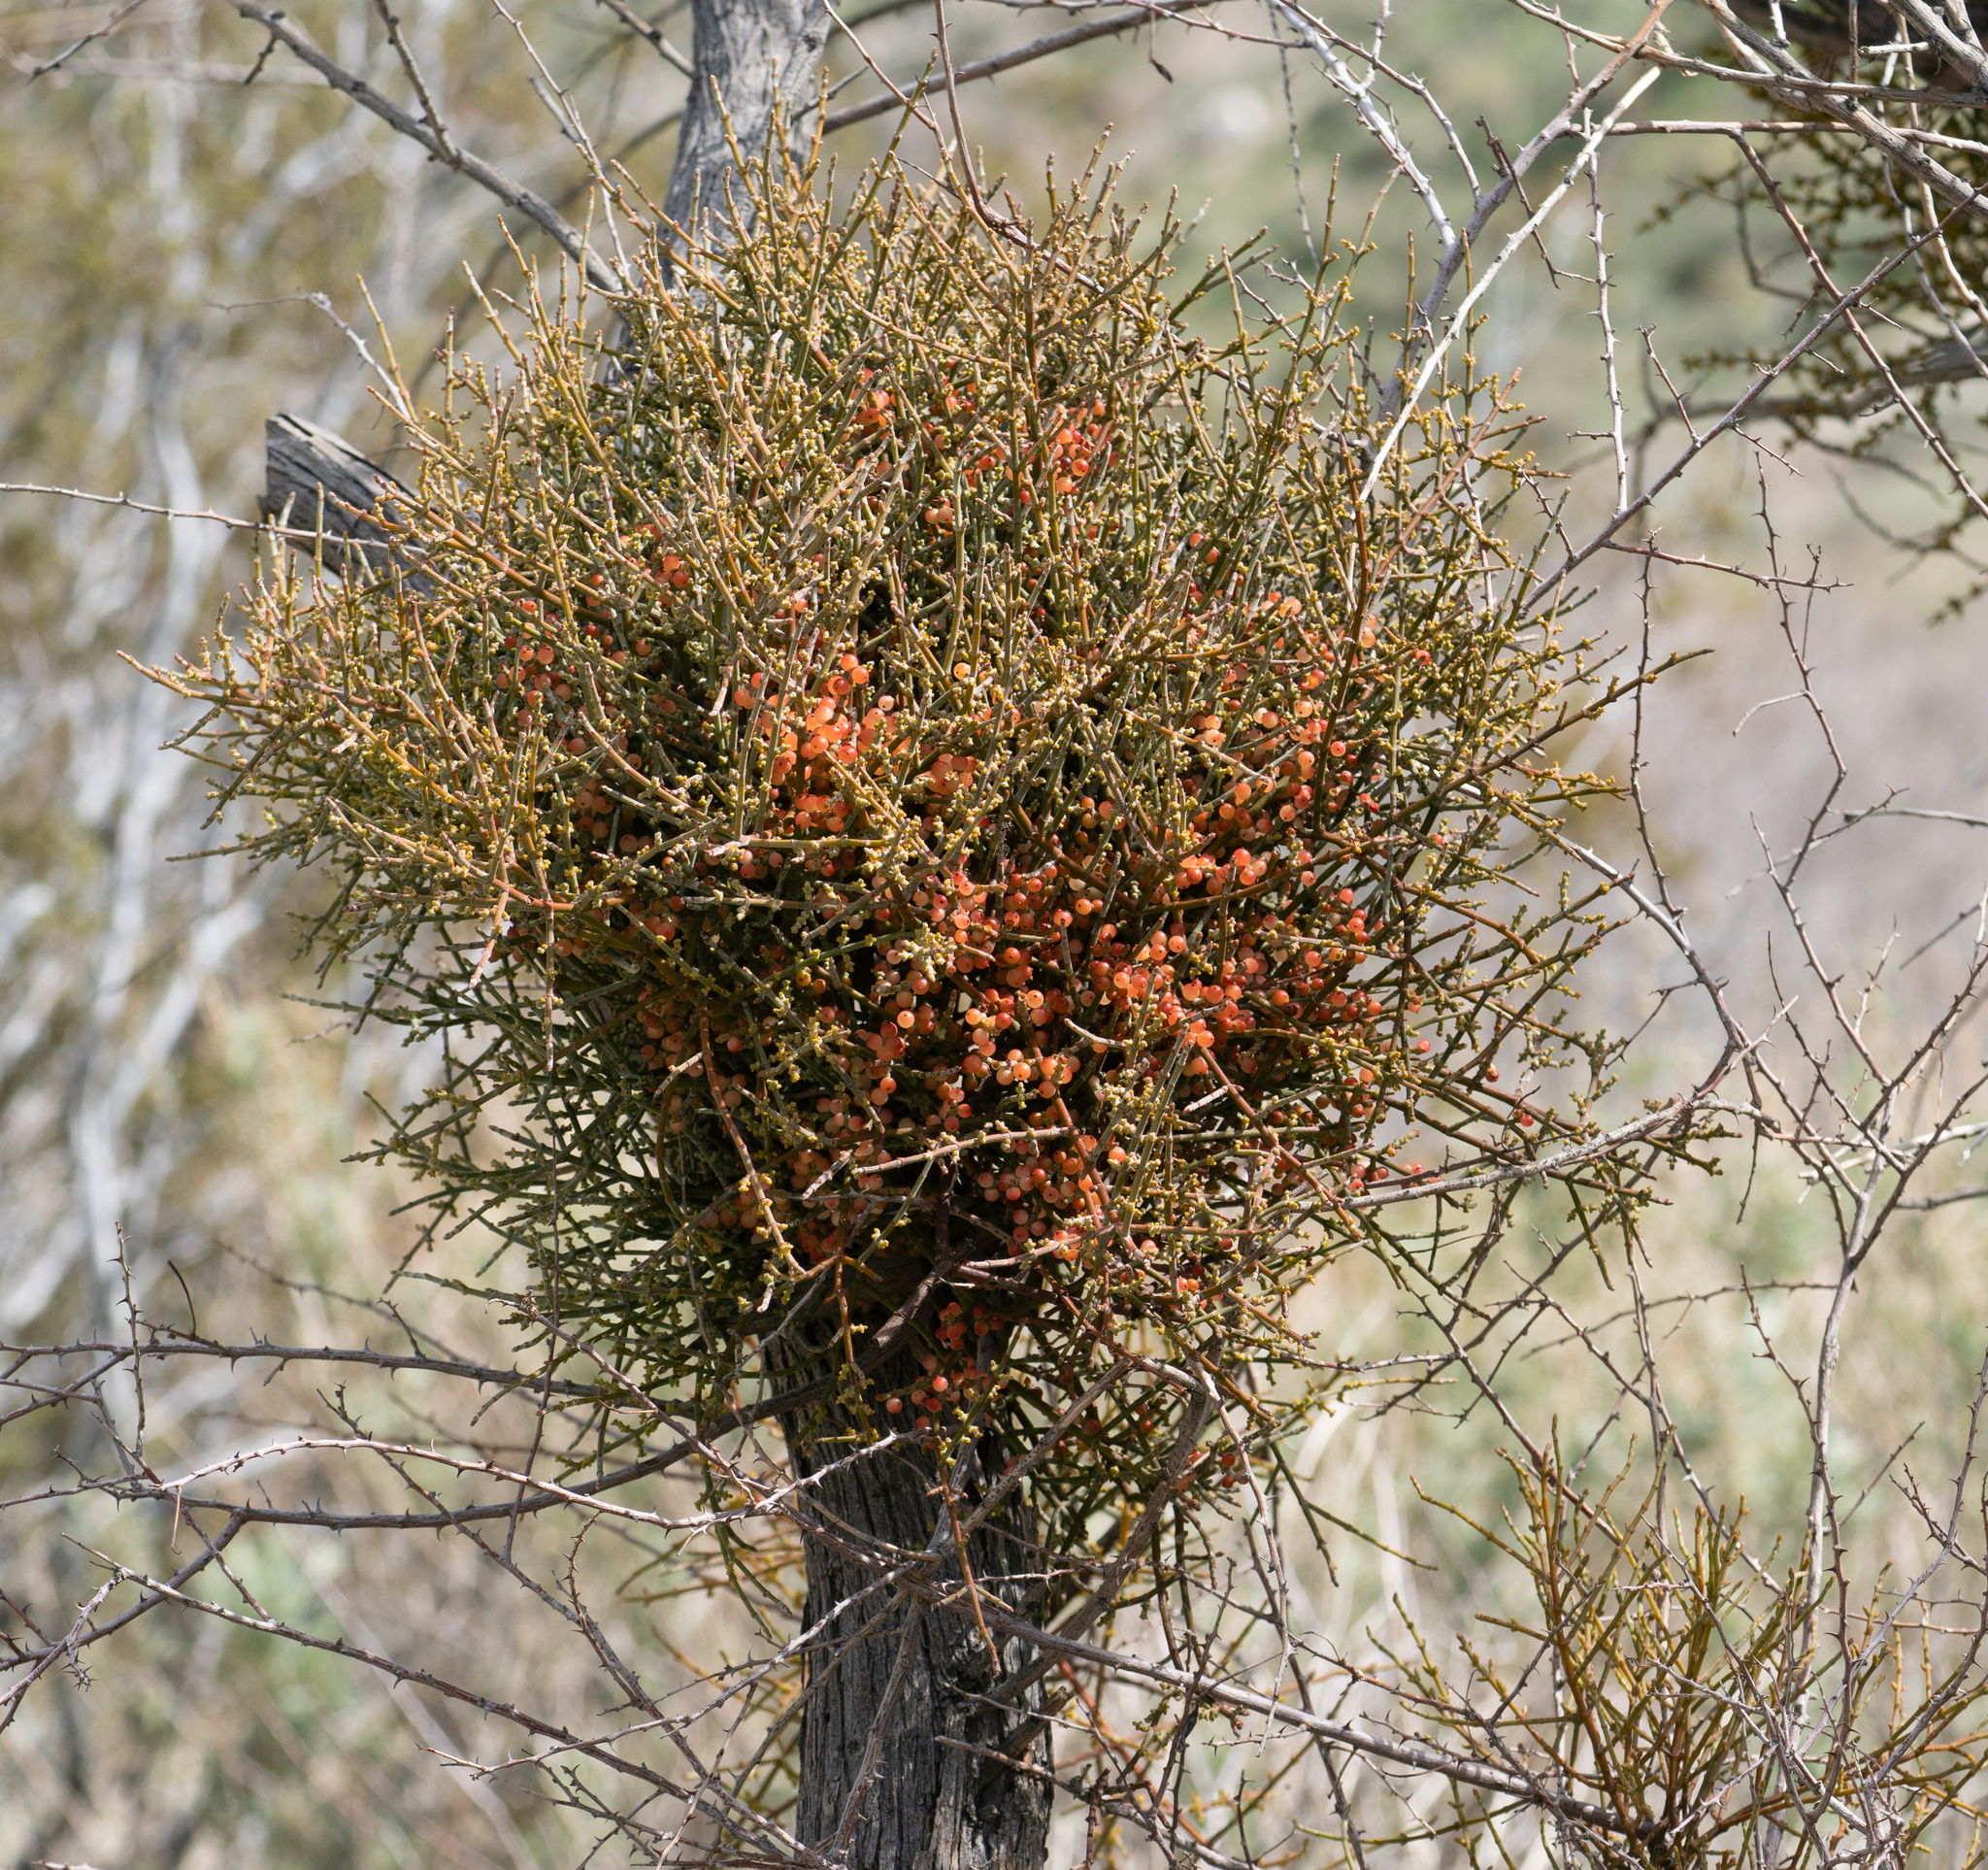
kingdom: Plantae
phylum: Tracheophyta
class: Magnoliopsida
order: Santalales
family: Viscaceae
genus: Phoradendron
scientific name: Phoradendron californicum
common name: Acacia mistletoe
